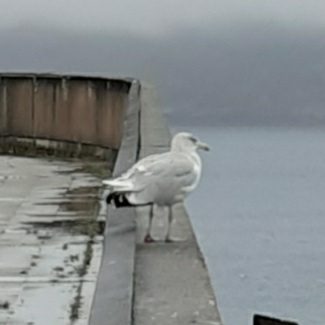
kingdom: Animalia
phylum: Chordata
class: Aves
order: Charadriiformes
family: Laridae
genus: Larus
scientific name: Larus argentatus
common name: Herring gull
